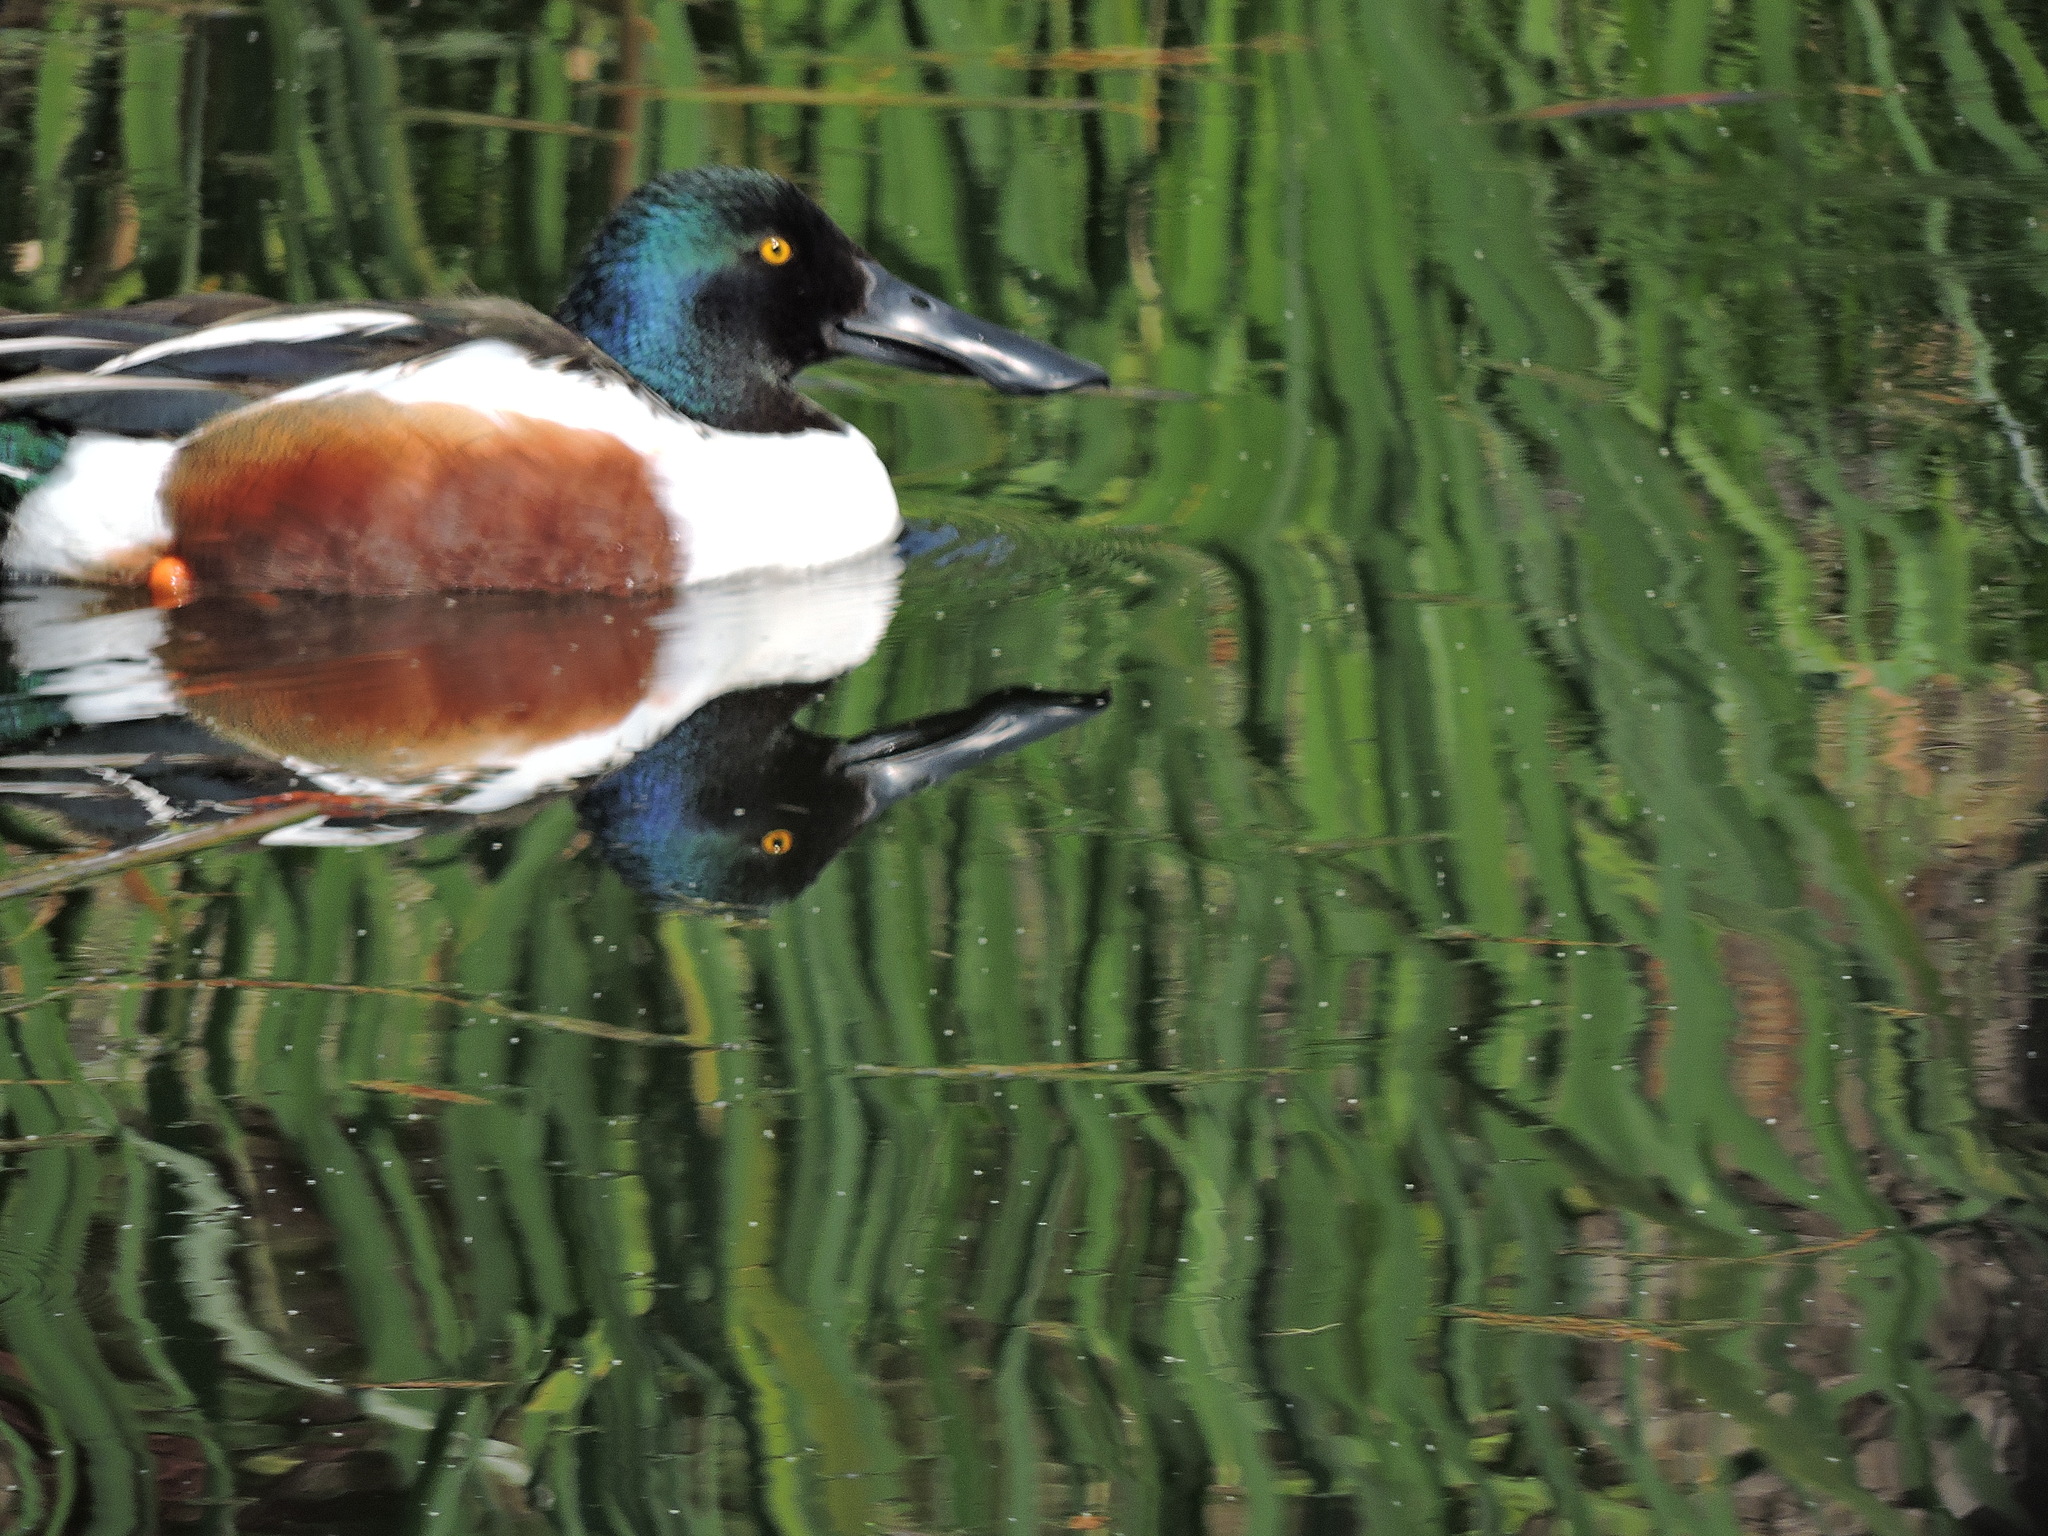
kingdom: Animalia
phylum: Chordata
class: Aves
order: Anseriformes
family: Anatidae
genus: Spatula
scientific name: Spatula clypeata
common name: Northern shoveler
